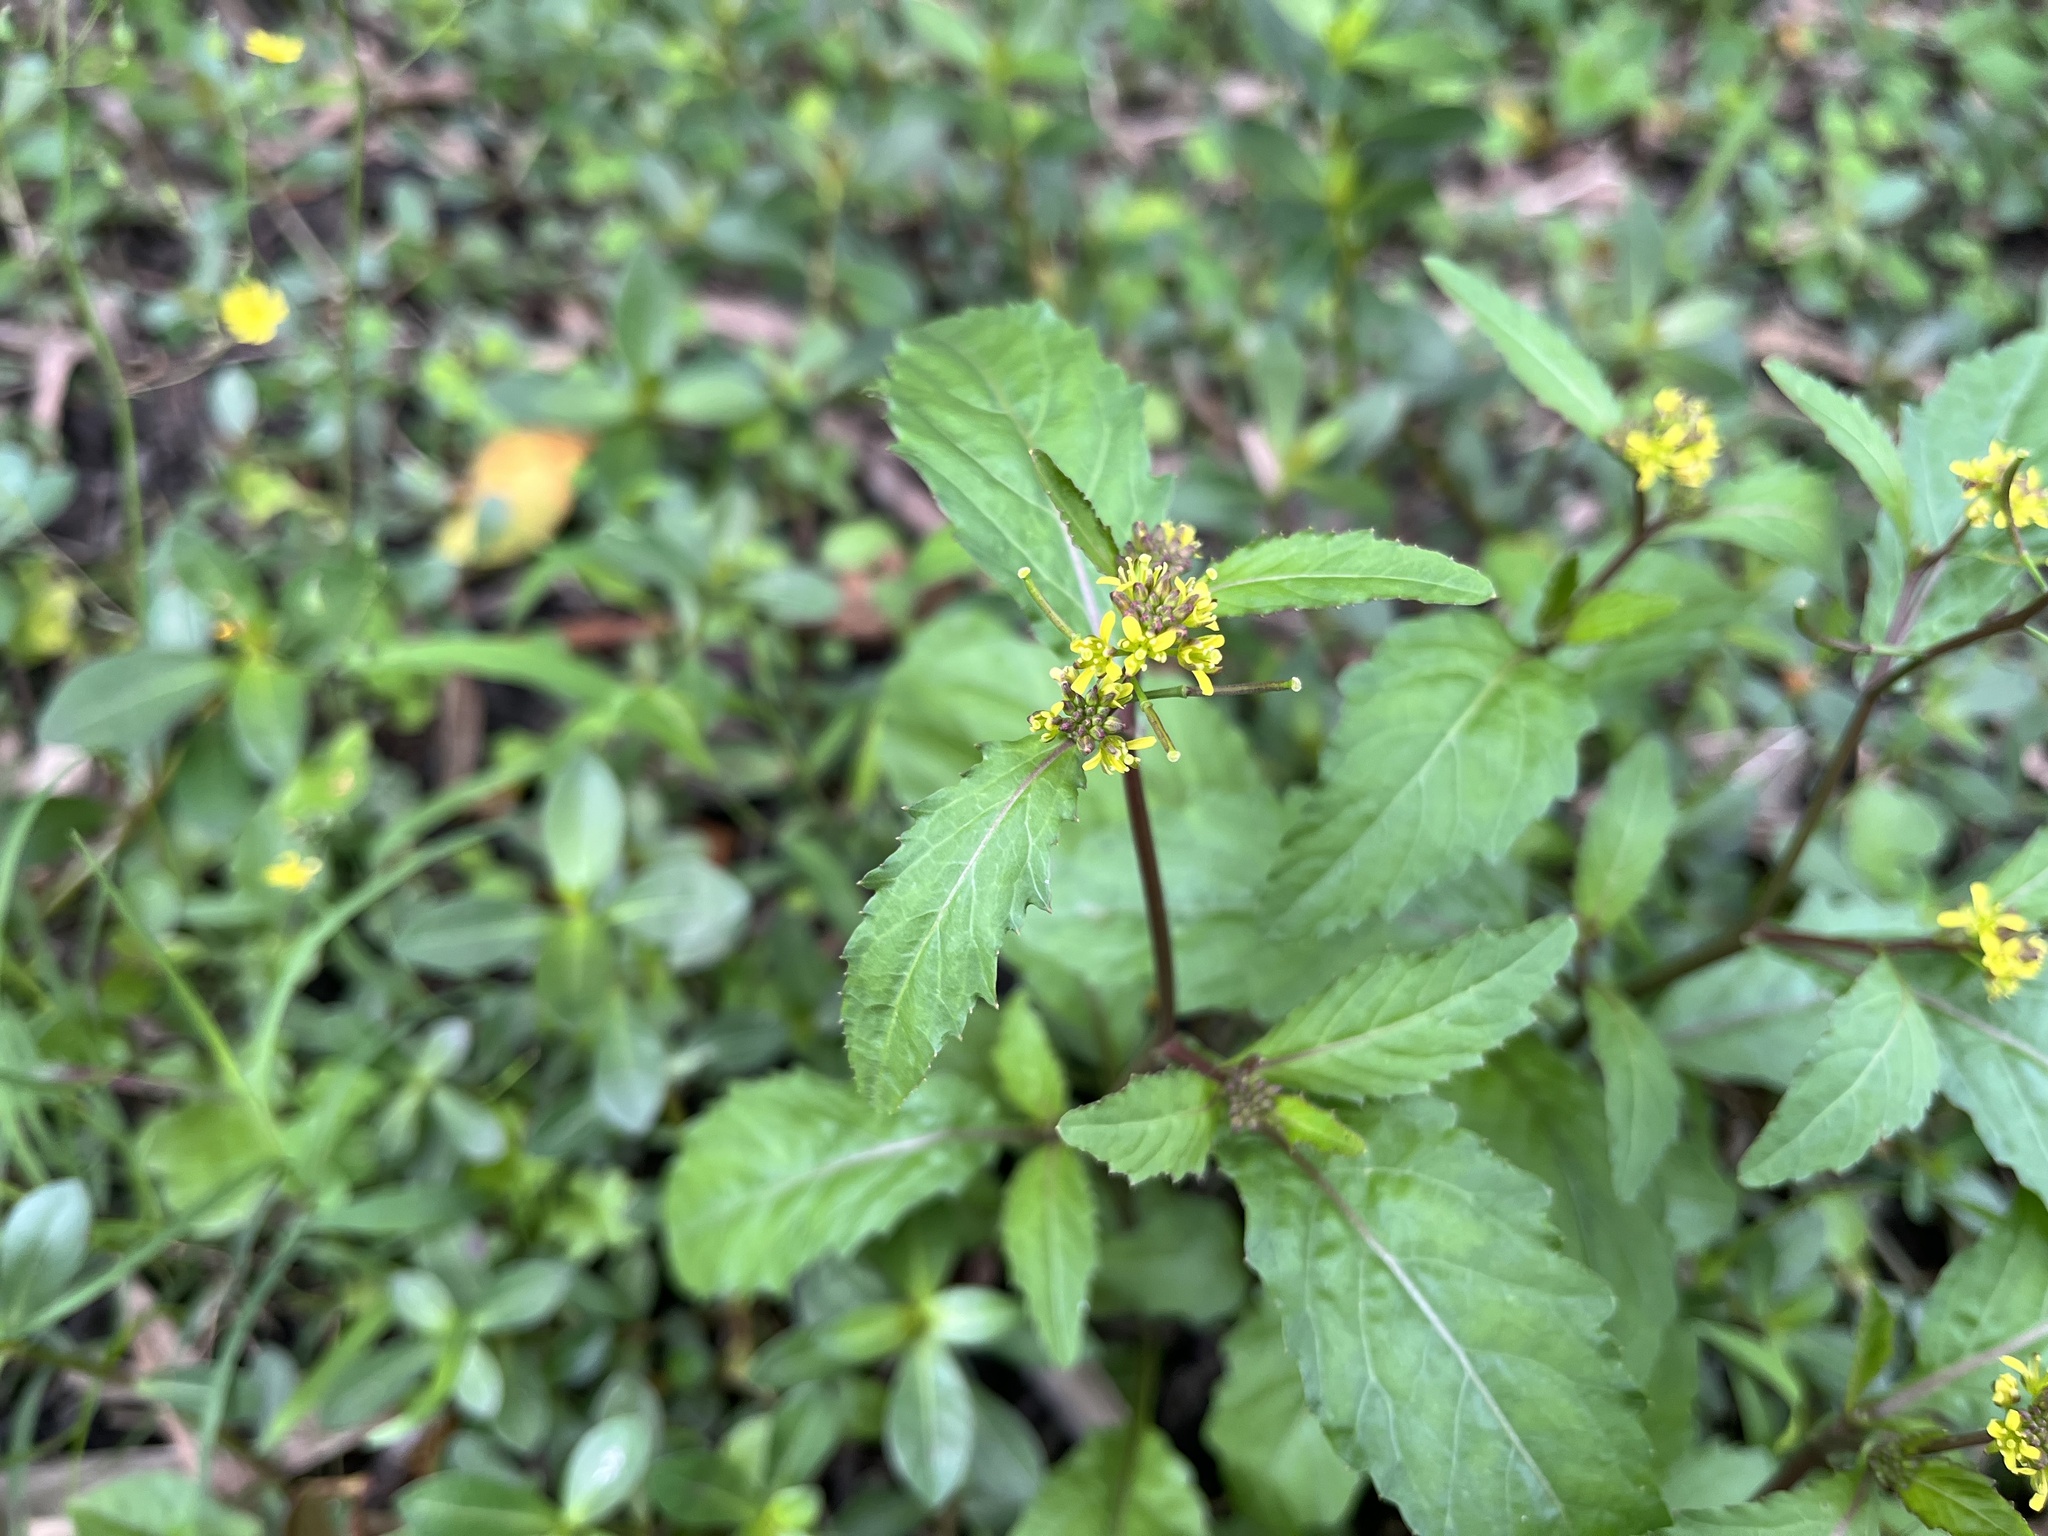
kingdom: Plantae
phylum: Tracheophyta
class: Magnoliopsida
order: Brassicales
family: Brassicaceae
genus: Rorippa
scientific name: Rorippa indica
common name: Variableleaf yellowcress
